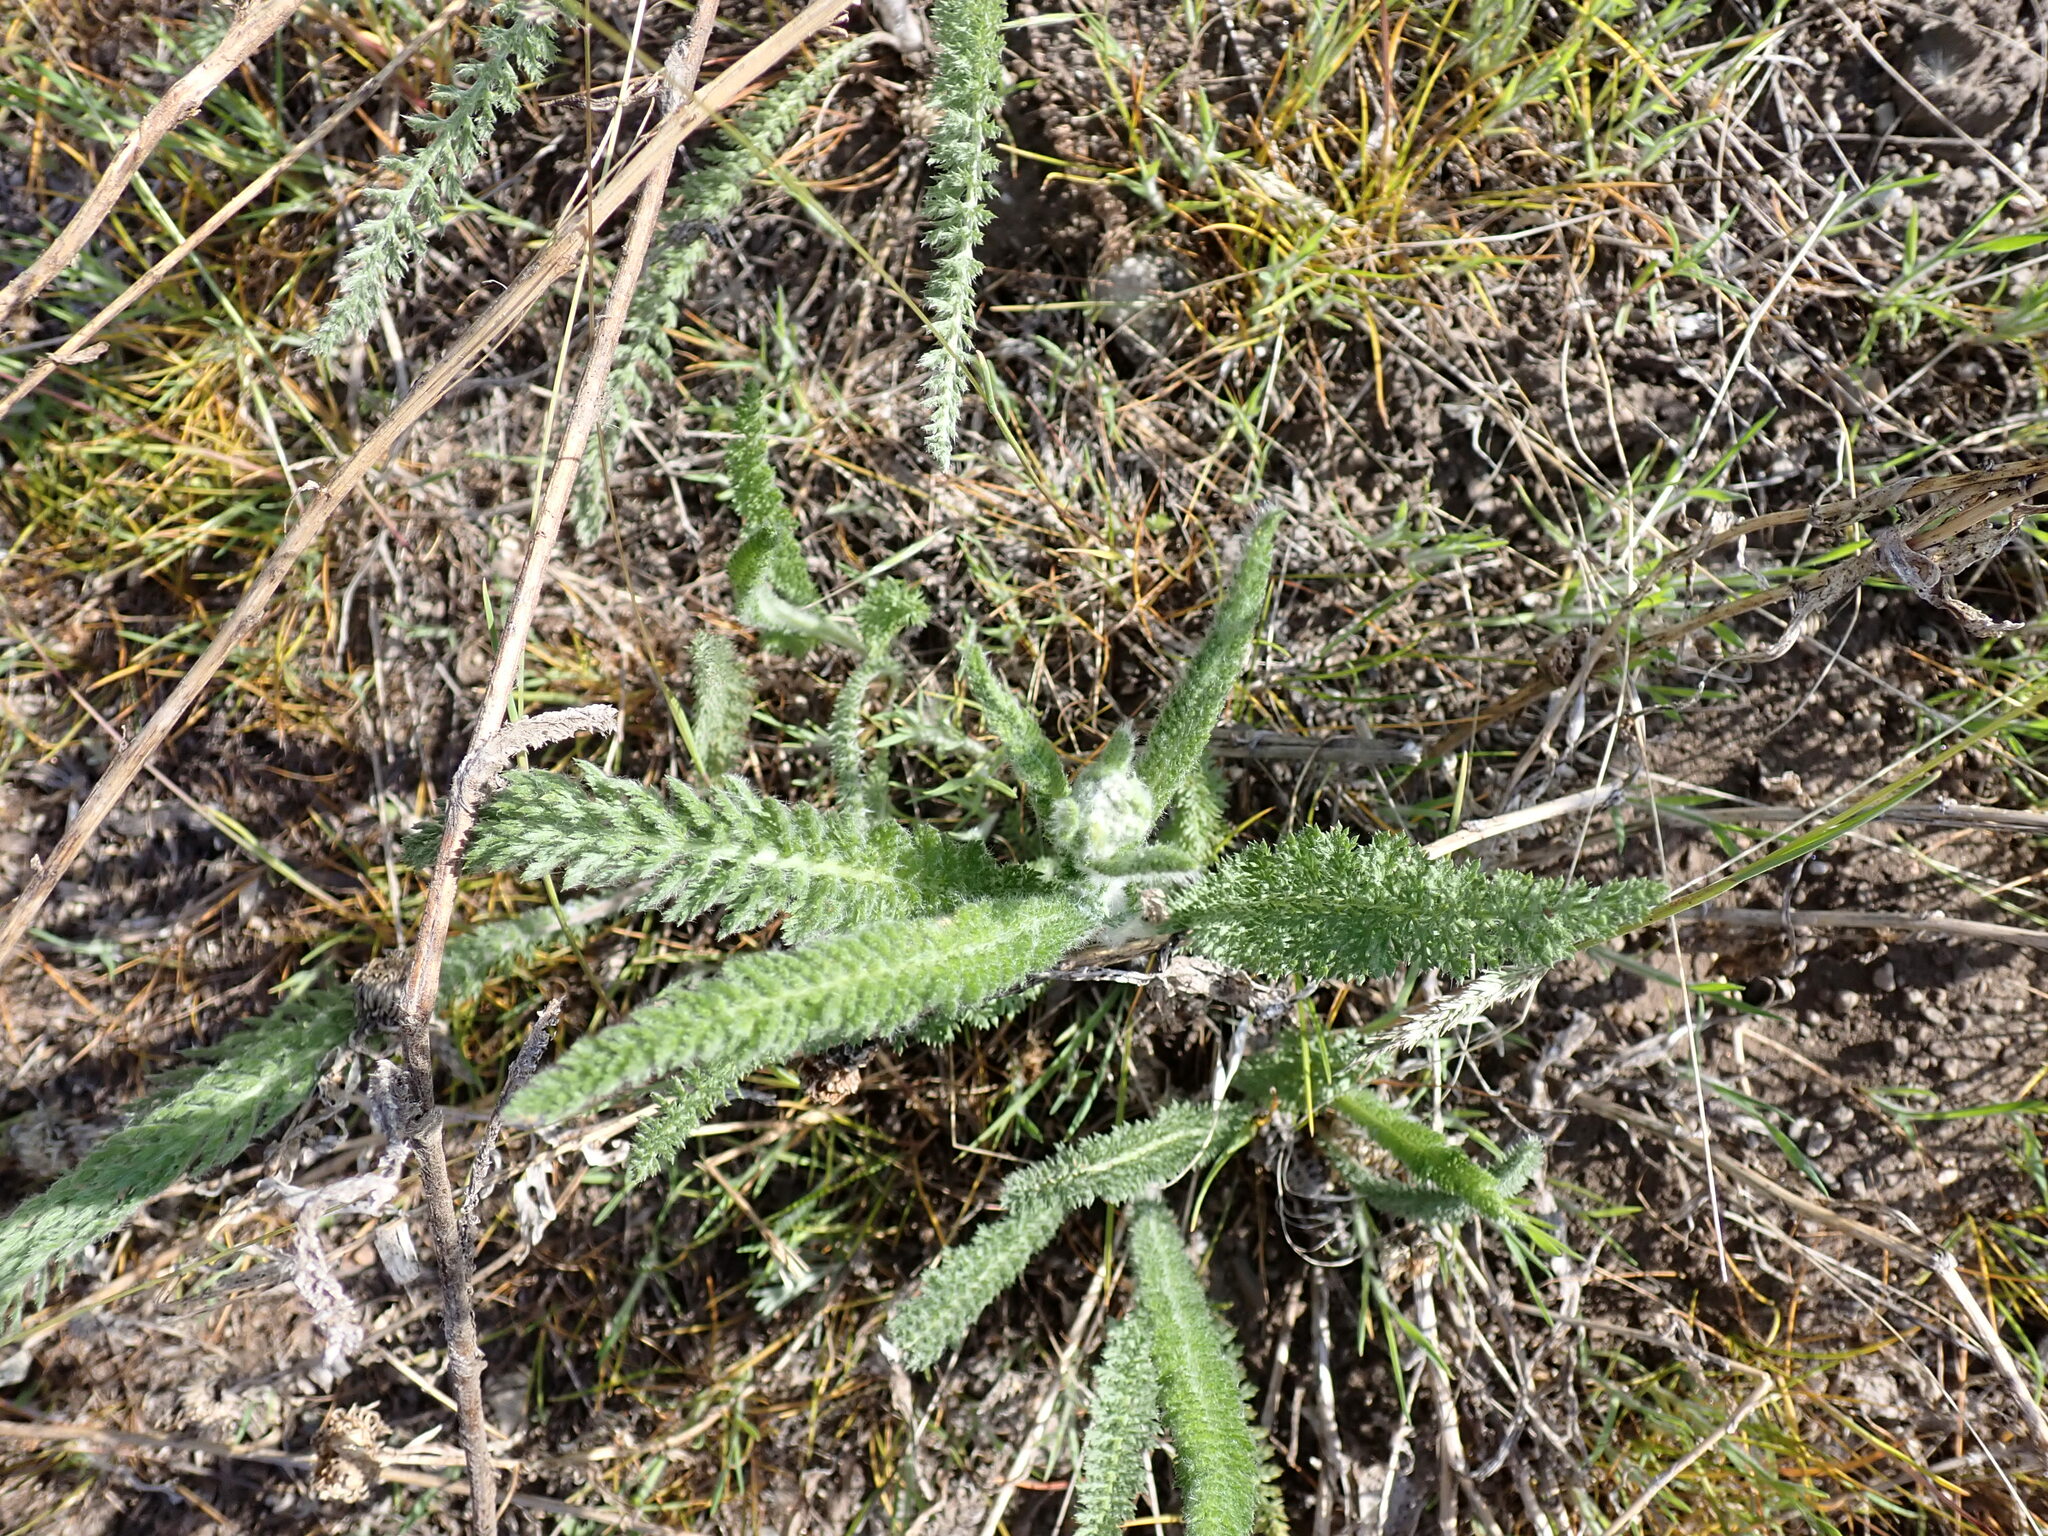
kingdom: Plantae
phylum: Tracheophyta
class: Magnoliopsida
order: Asterales
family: Asteraceae
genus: Achillea
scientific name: Achillea millefolium
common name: Yarrow
